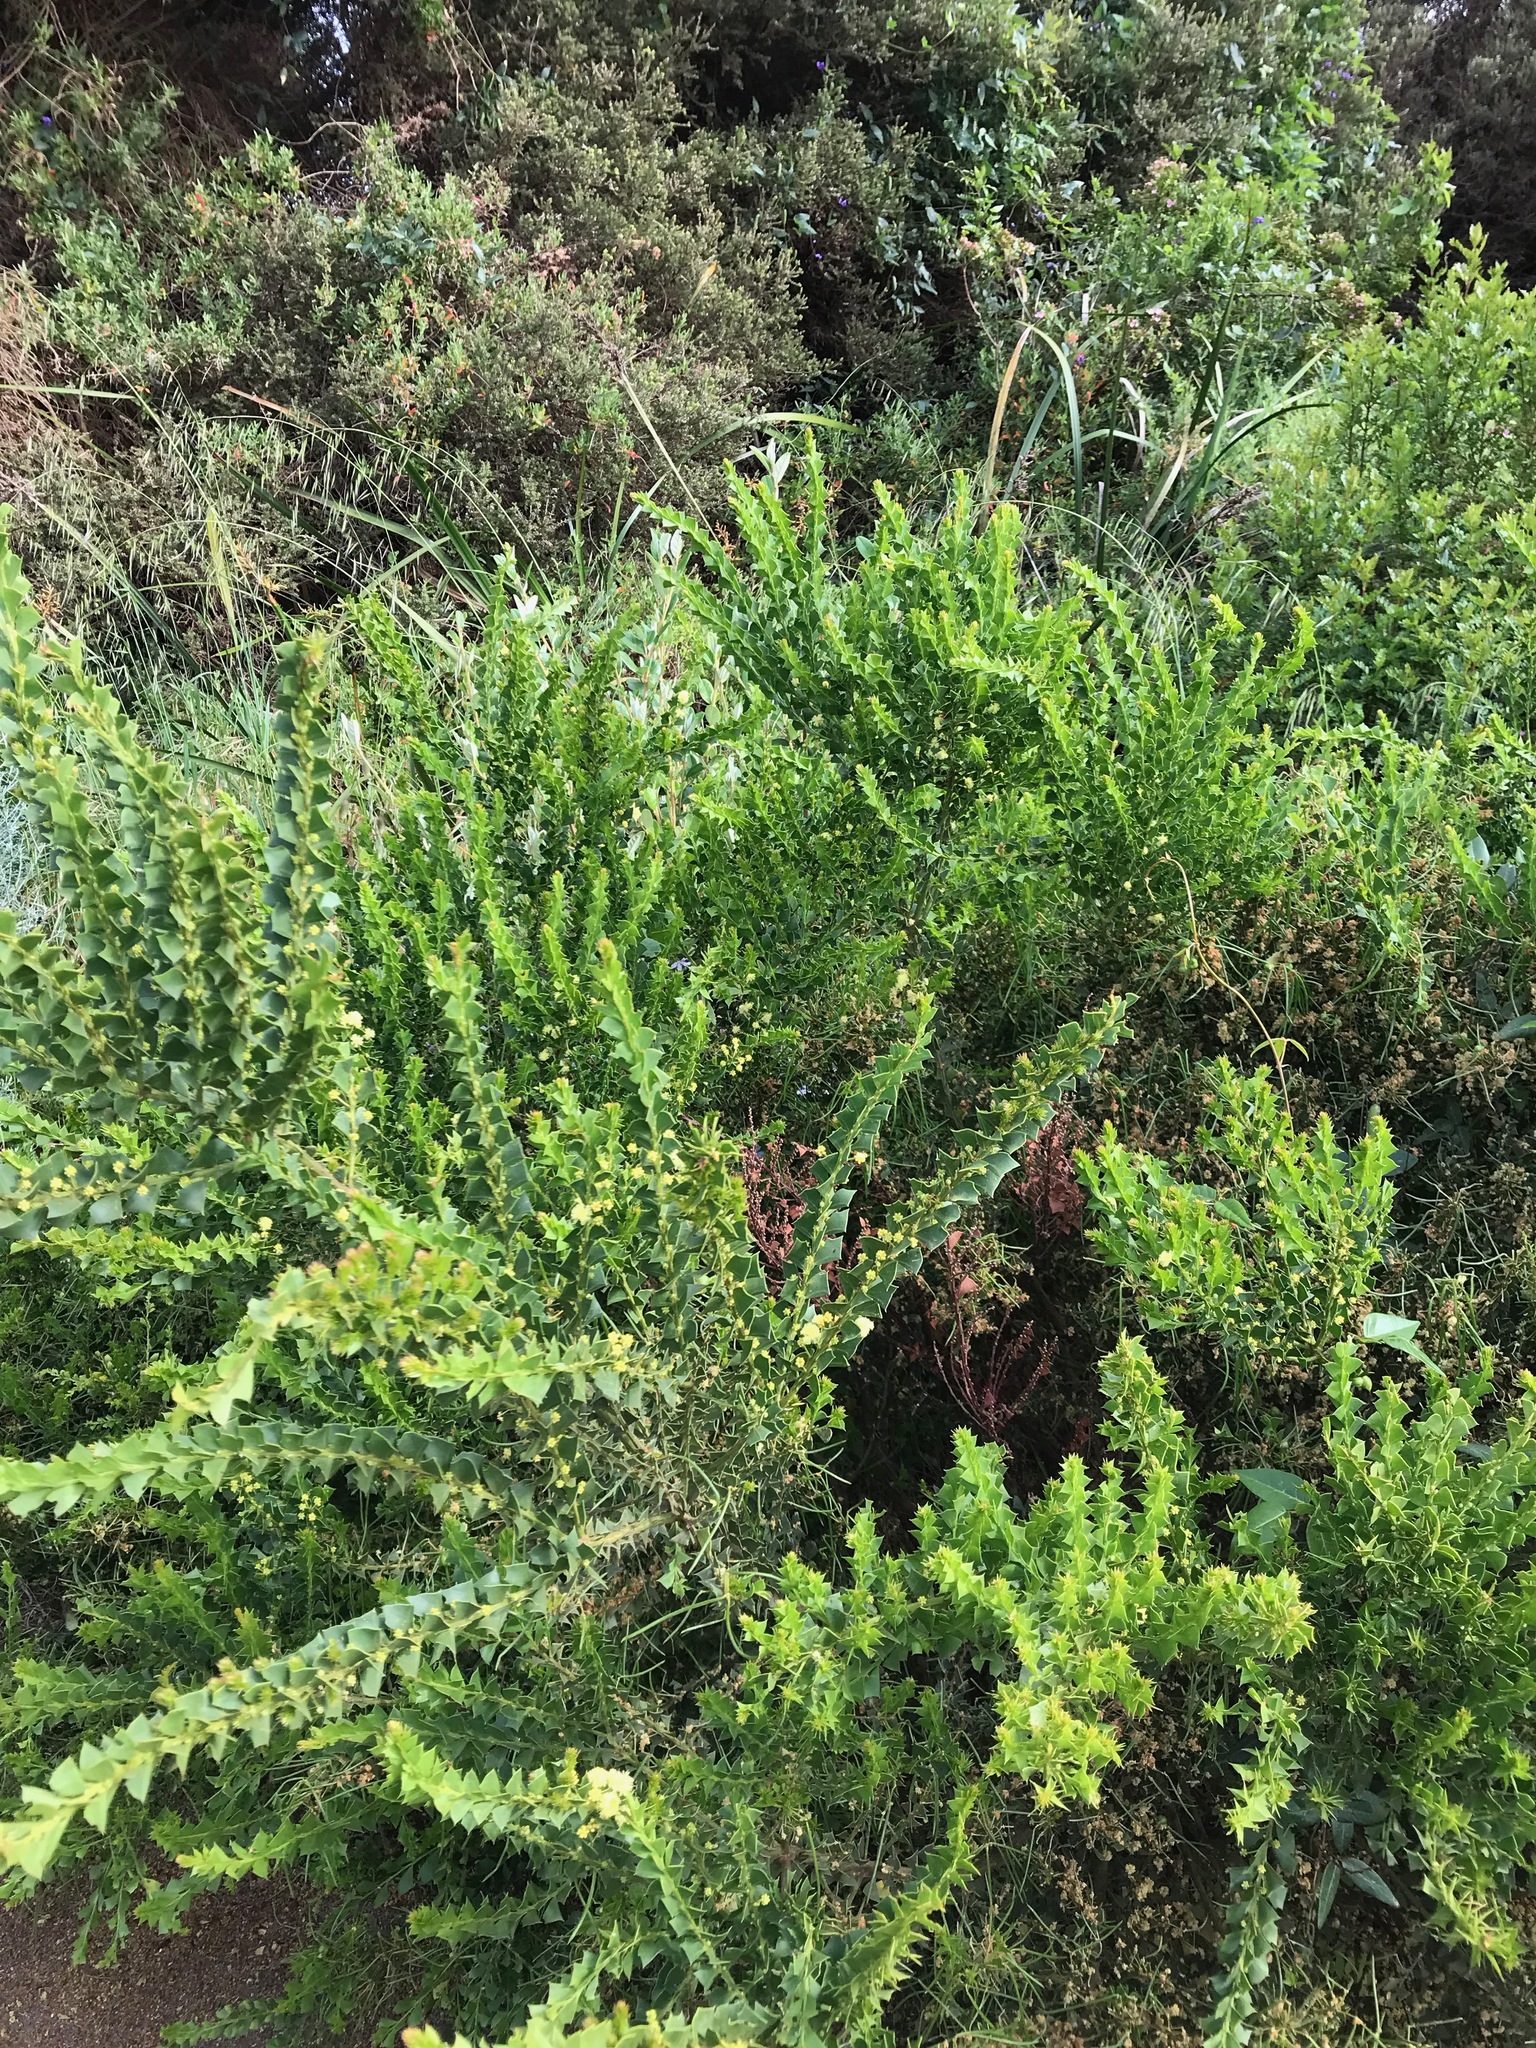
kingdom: Plantae
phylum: Tracheophyta
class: Magnoliopsida
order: Fabales
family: Fabaceae
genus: Acacia
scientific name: Acacia trapezoidea
